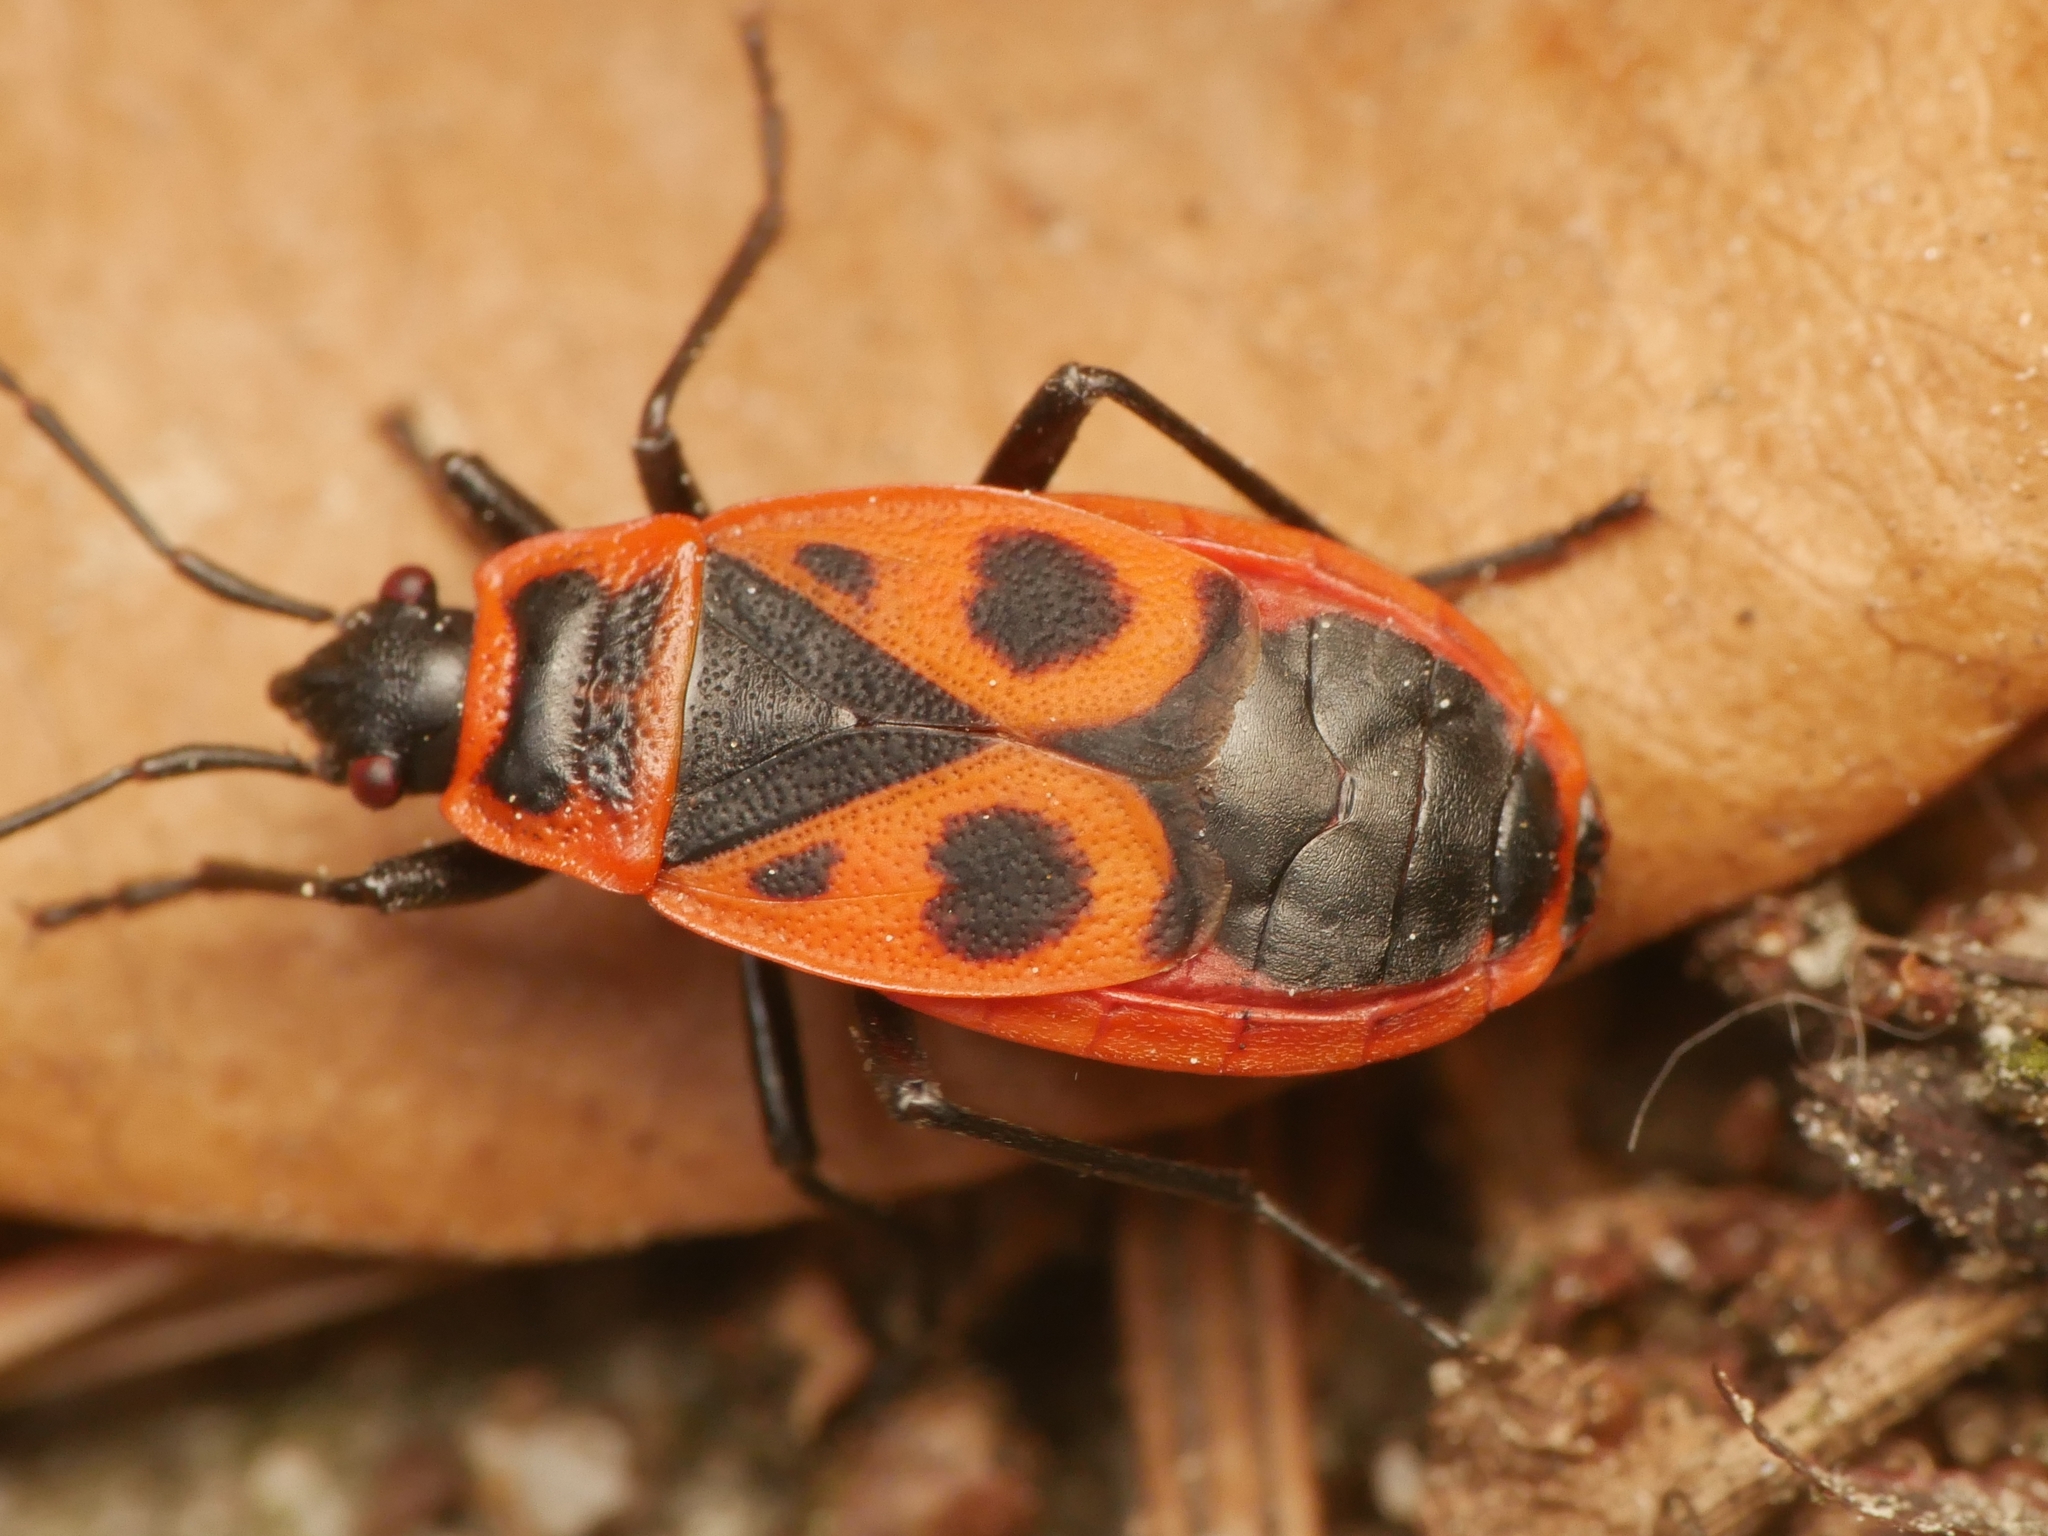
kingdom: Animalia
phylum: Arthropoda
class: Insecta
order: Hemiptera
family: Pyrrhocoridae
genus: Pyrrhocoris
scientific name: Pyrrhocoris apterus
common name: Firebug
